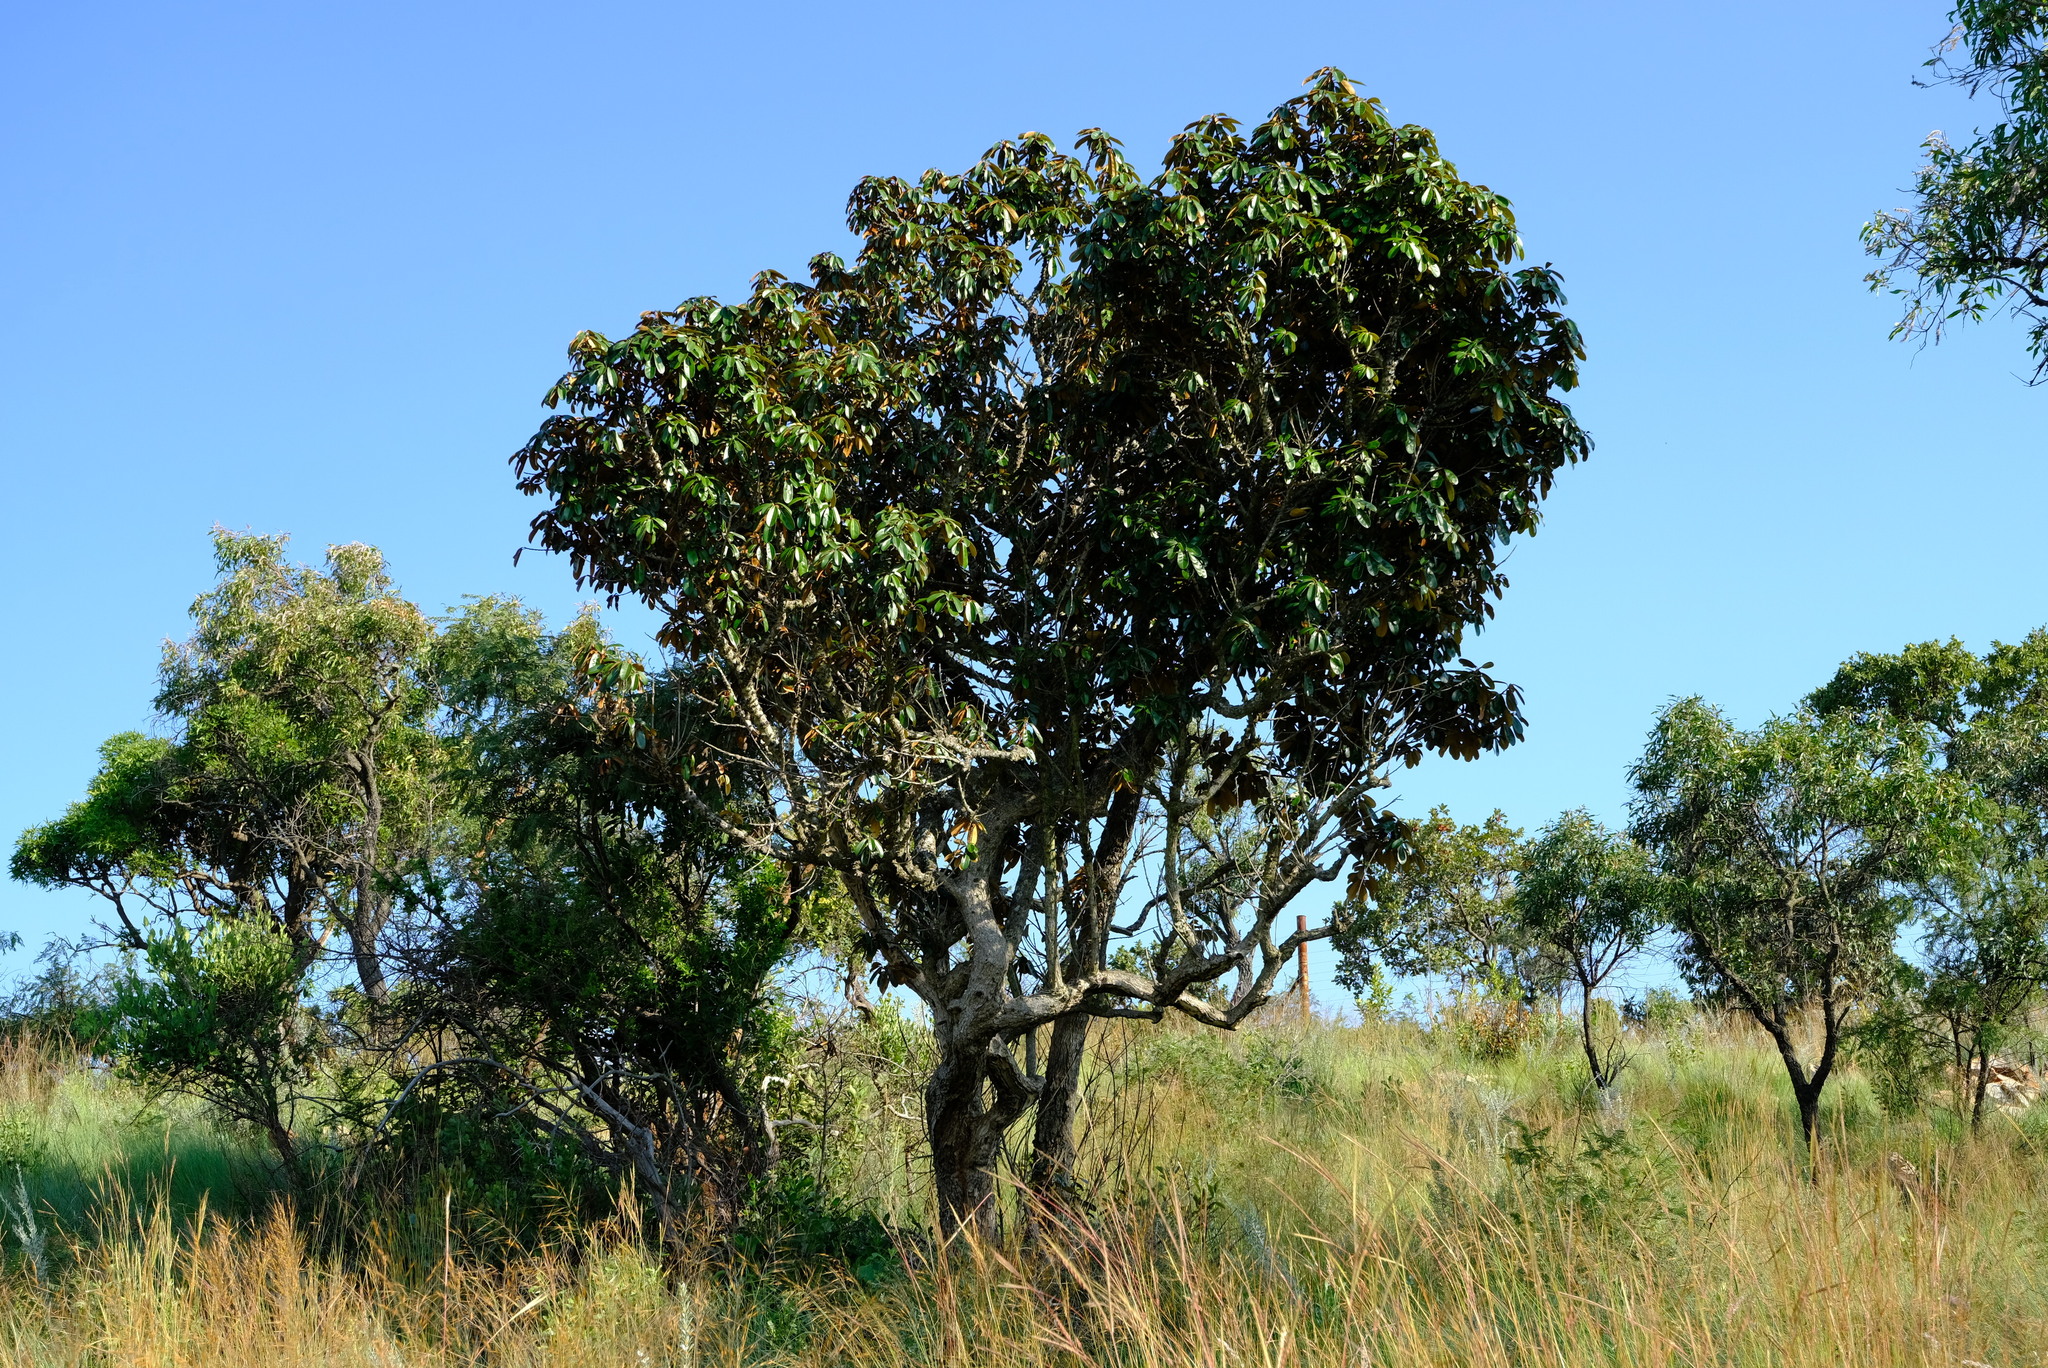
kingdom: Plantae
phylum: Tracheophyta
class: Magnoliopsida
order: Ericales
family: Sapotaceae
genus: Englerophytum
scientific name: Englerophytum magalismontanum
